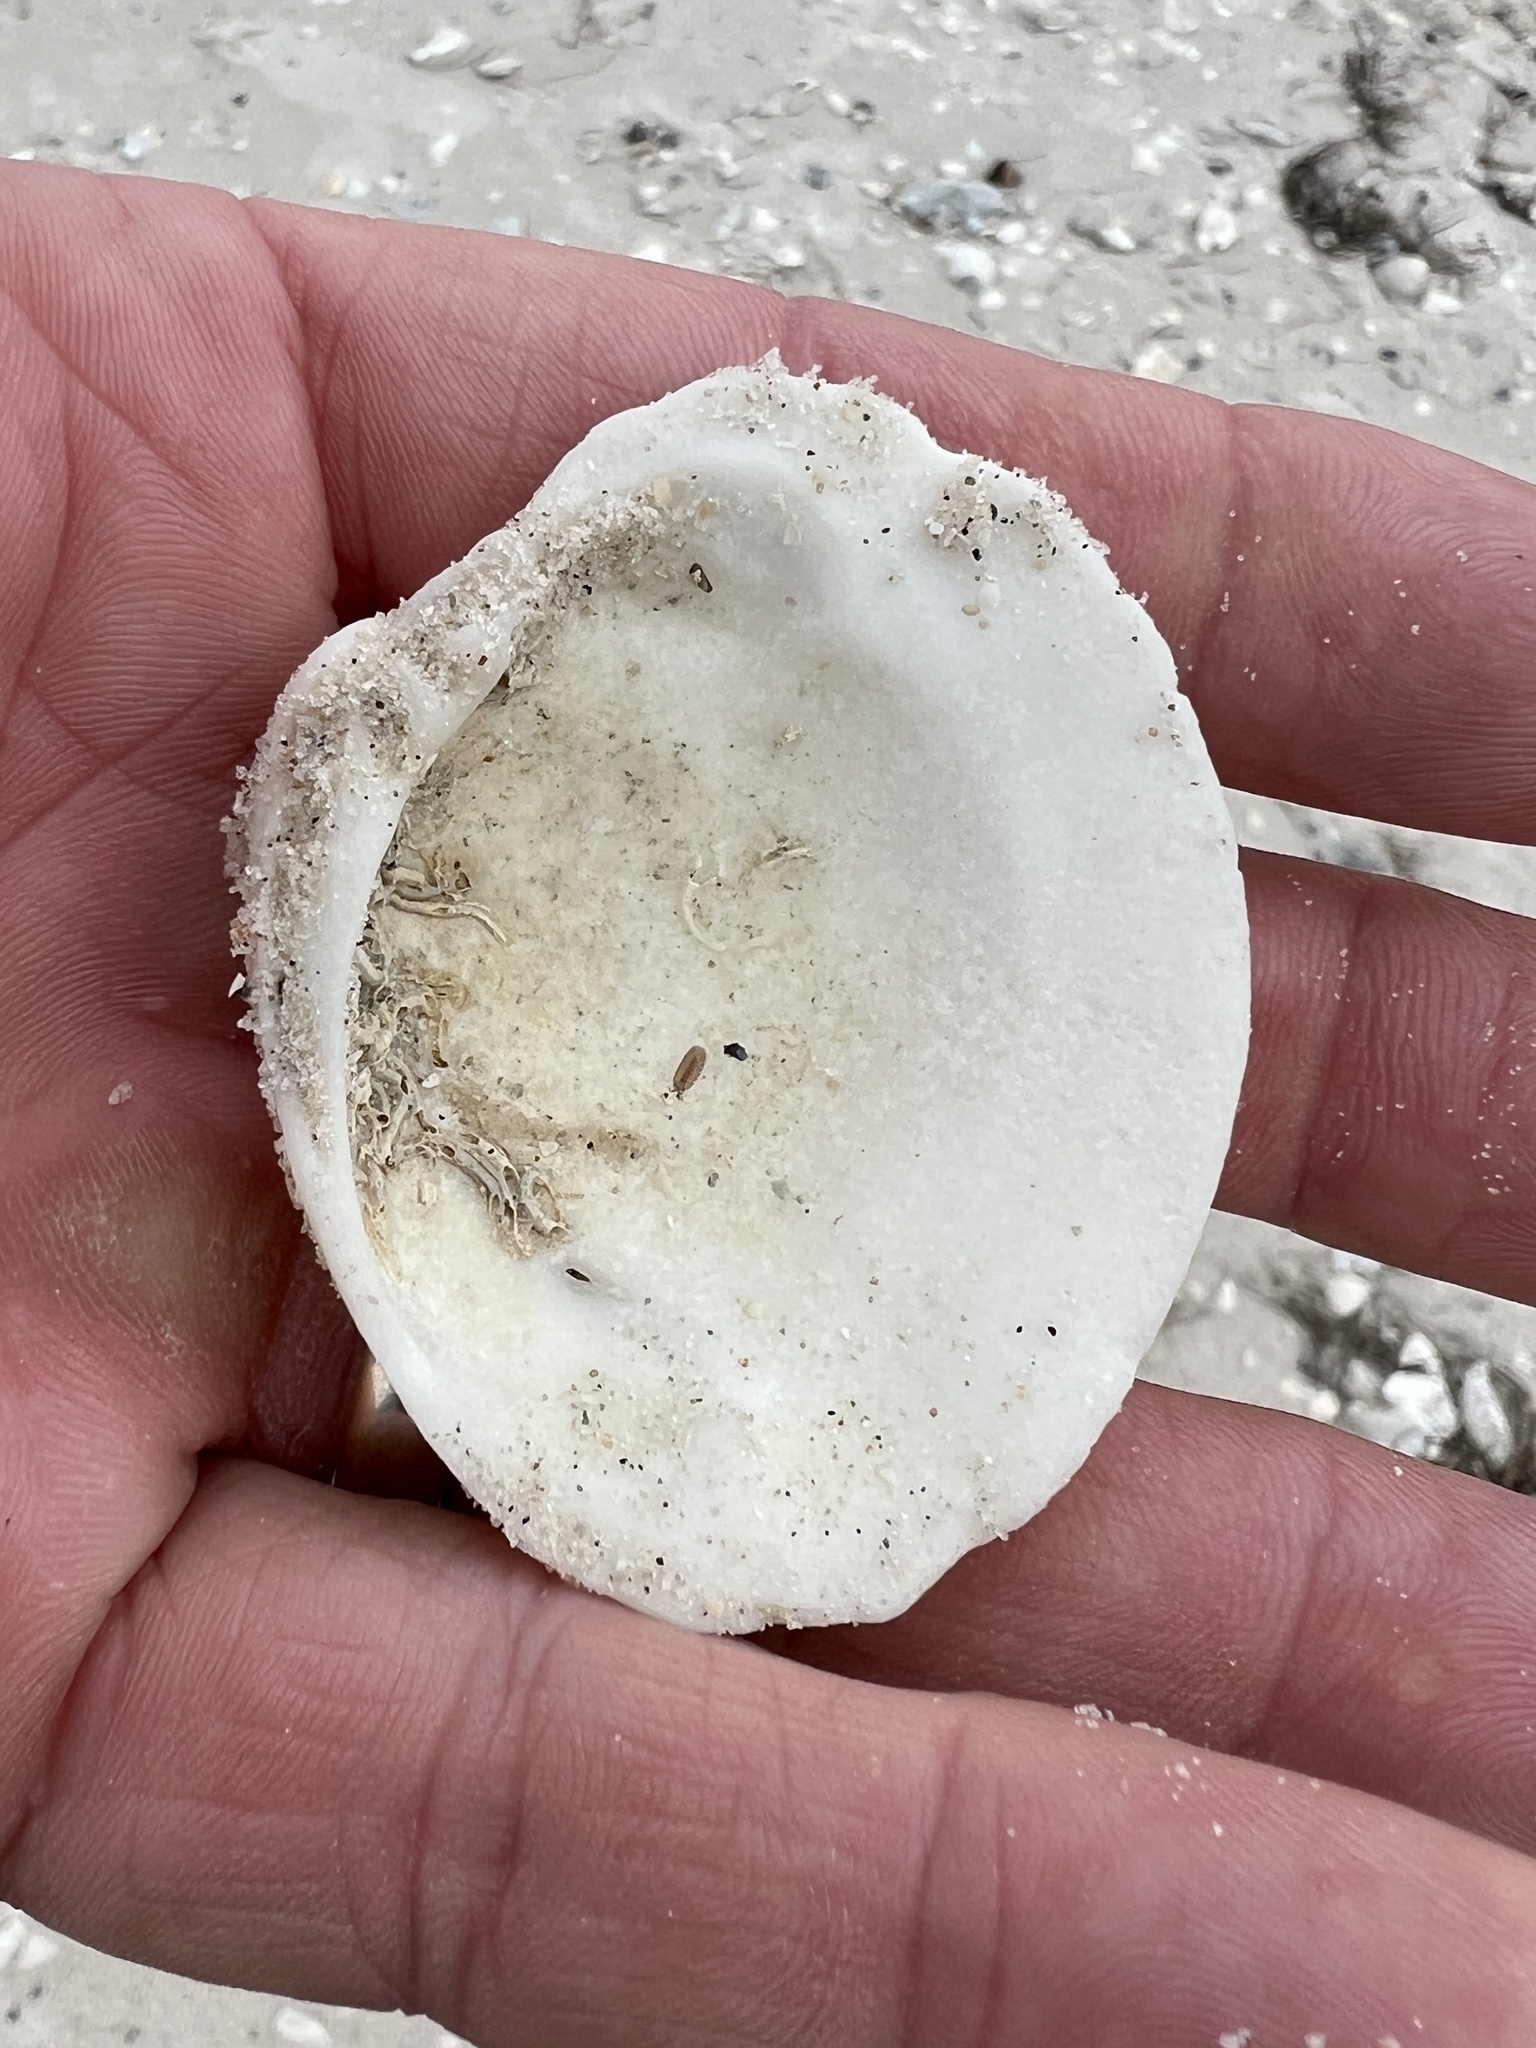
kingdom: Animalia
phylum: Mollusca
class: Bivalvia
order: Venerida
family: Mactridae
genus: Spisula
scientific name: Spisula raveneli
